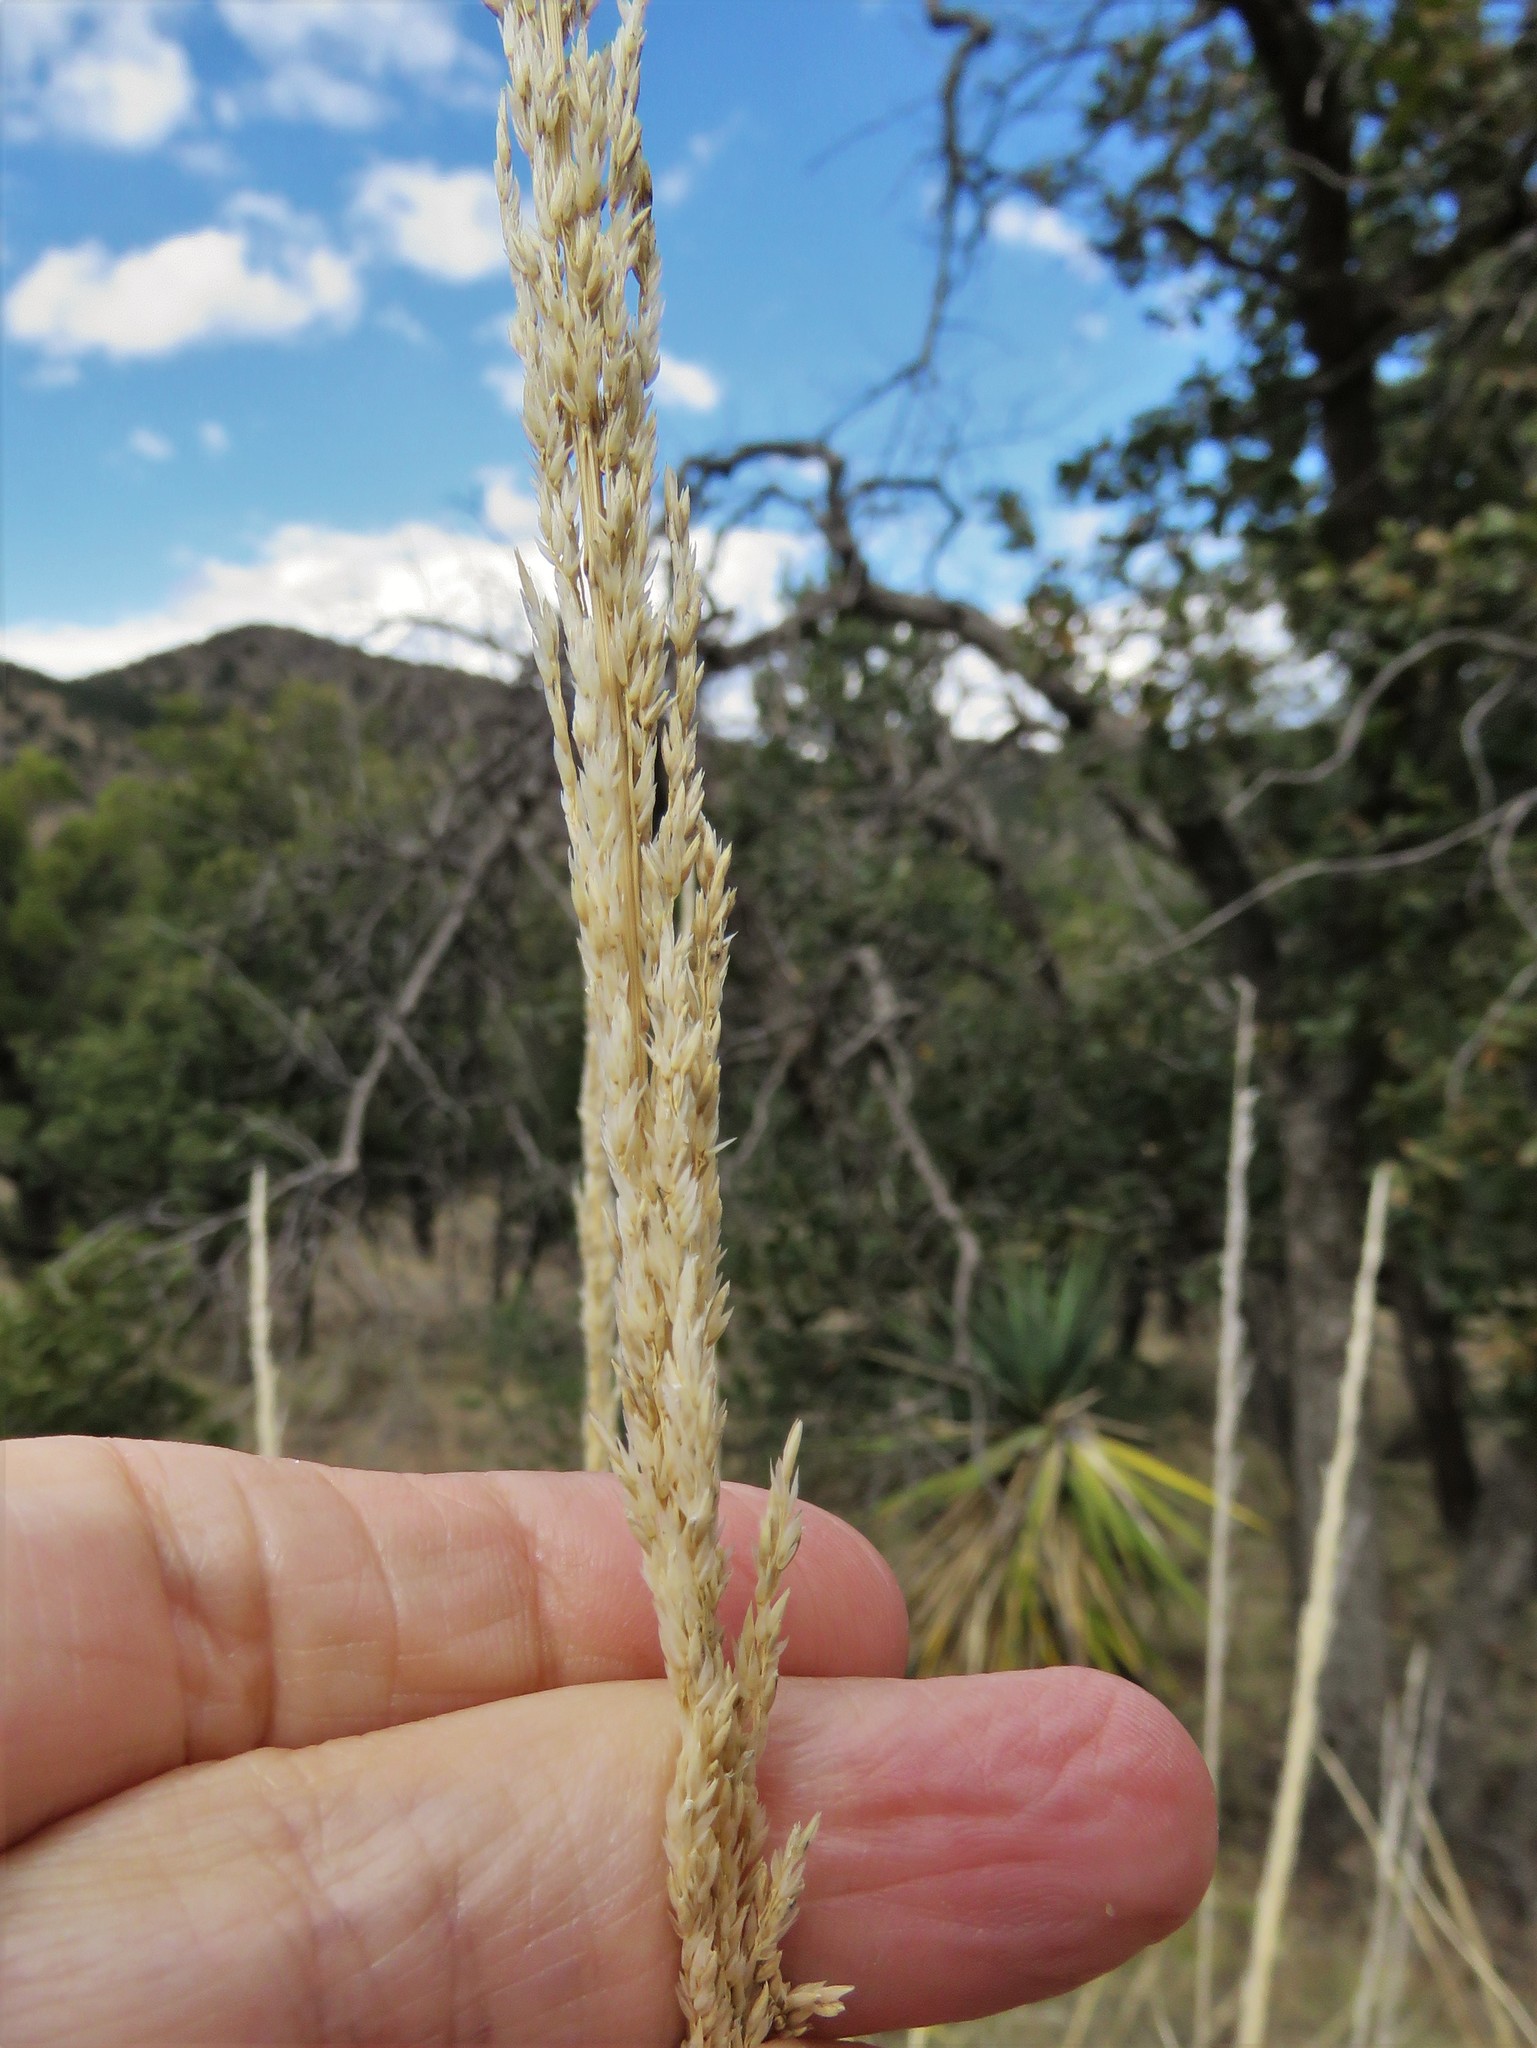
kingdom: Plantae
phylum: Tracheophyta
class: Liliopsida
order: Poales
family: Poaceae
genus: Muhlenbergia
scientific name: Muhlenbergia rigens
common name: Deer grass
